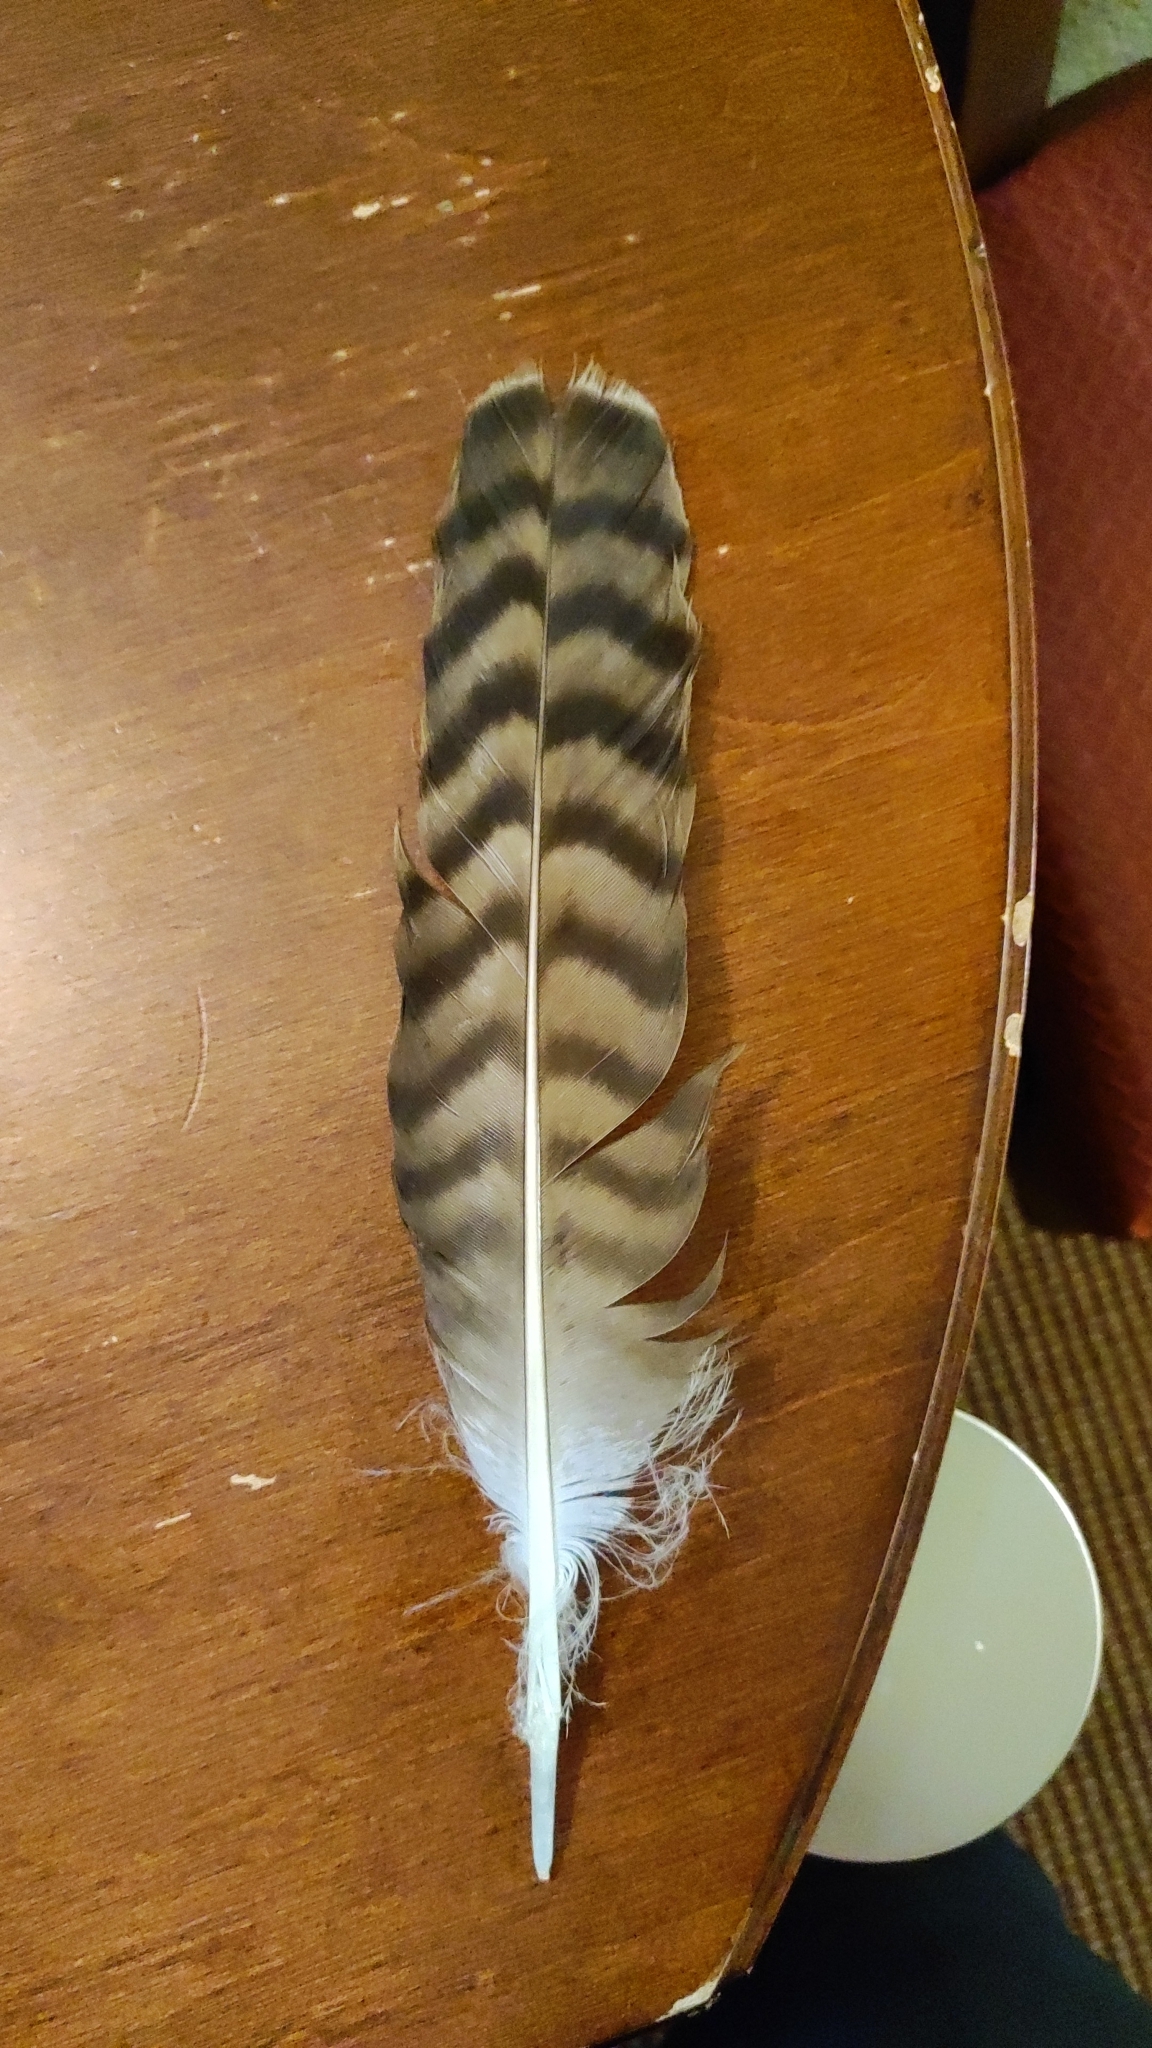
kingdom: Animalia
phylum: Chordata
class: Aves
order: Accipitriformes
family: Accipitridae
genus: Buteo
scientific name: Buteo jamaicensis
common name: Red-tailed hawk
